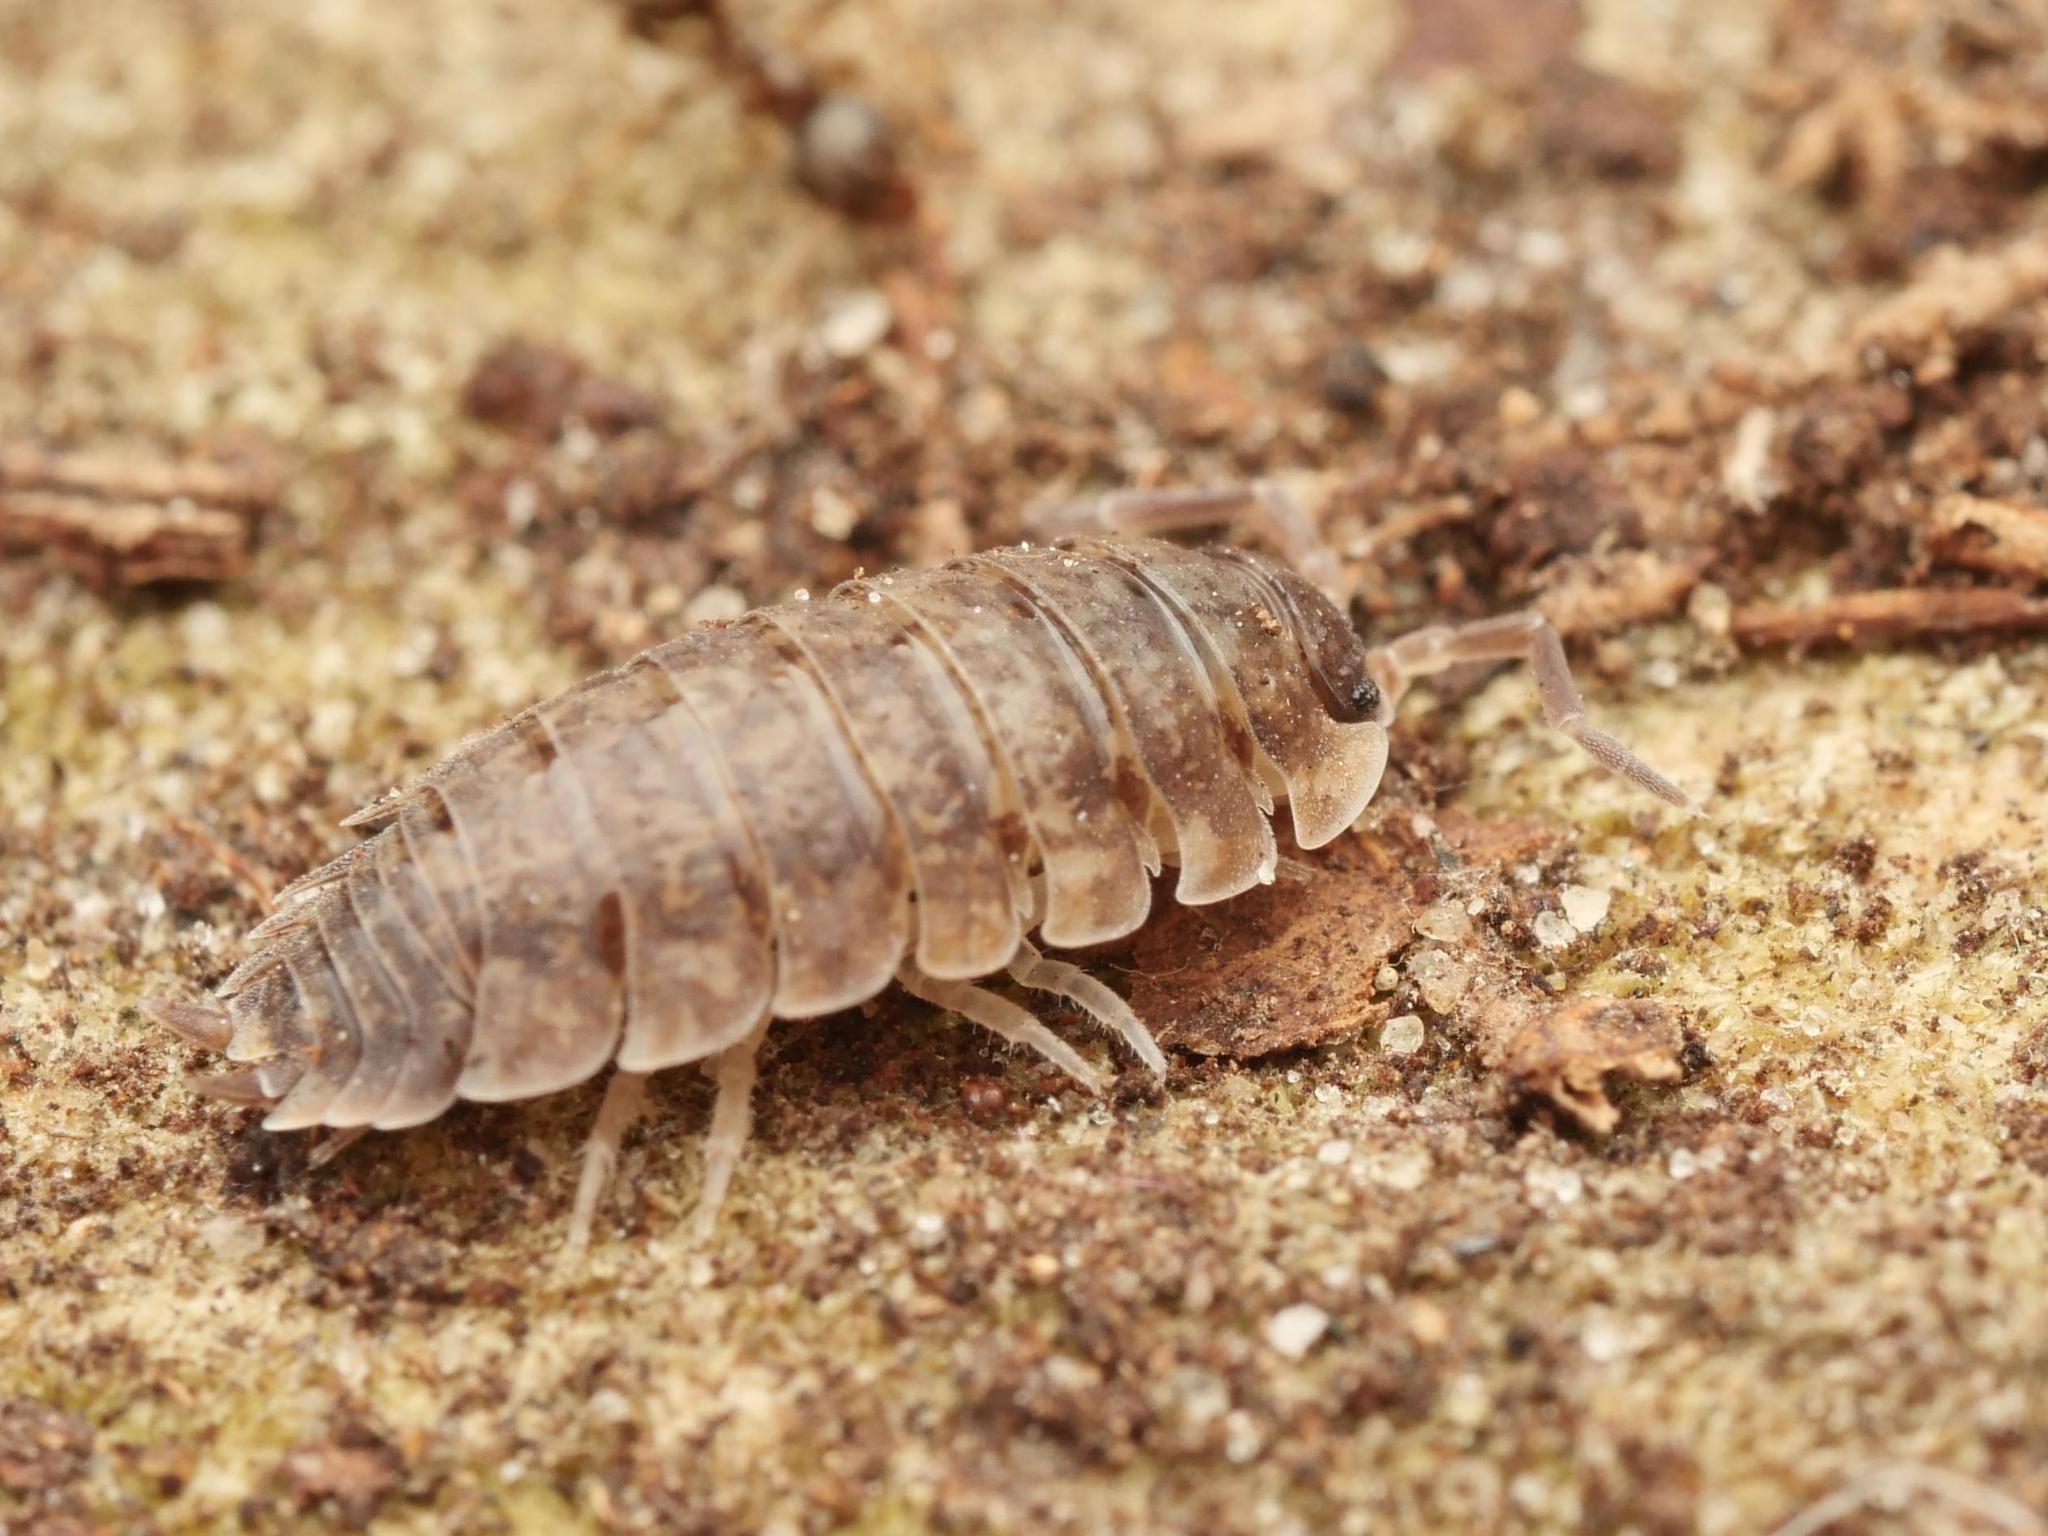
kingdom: Animalia
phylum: Arthropoda
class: Malacostraca
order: Isopoda
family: Porcellionidae
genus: Porcellio
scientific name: Porcellio scaber
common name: Common rough woodlouse
